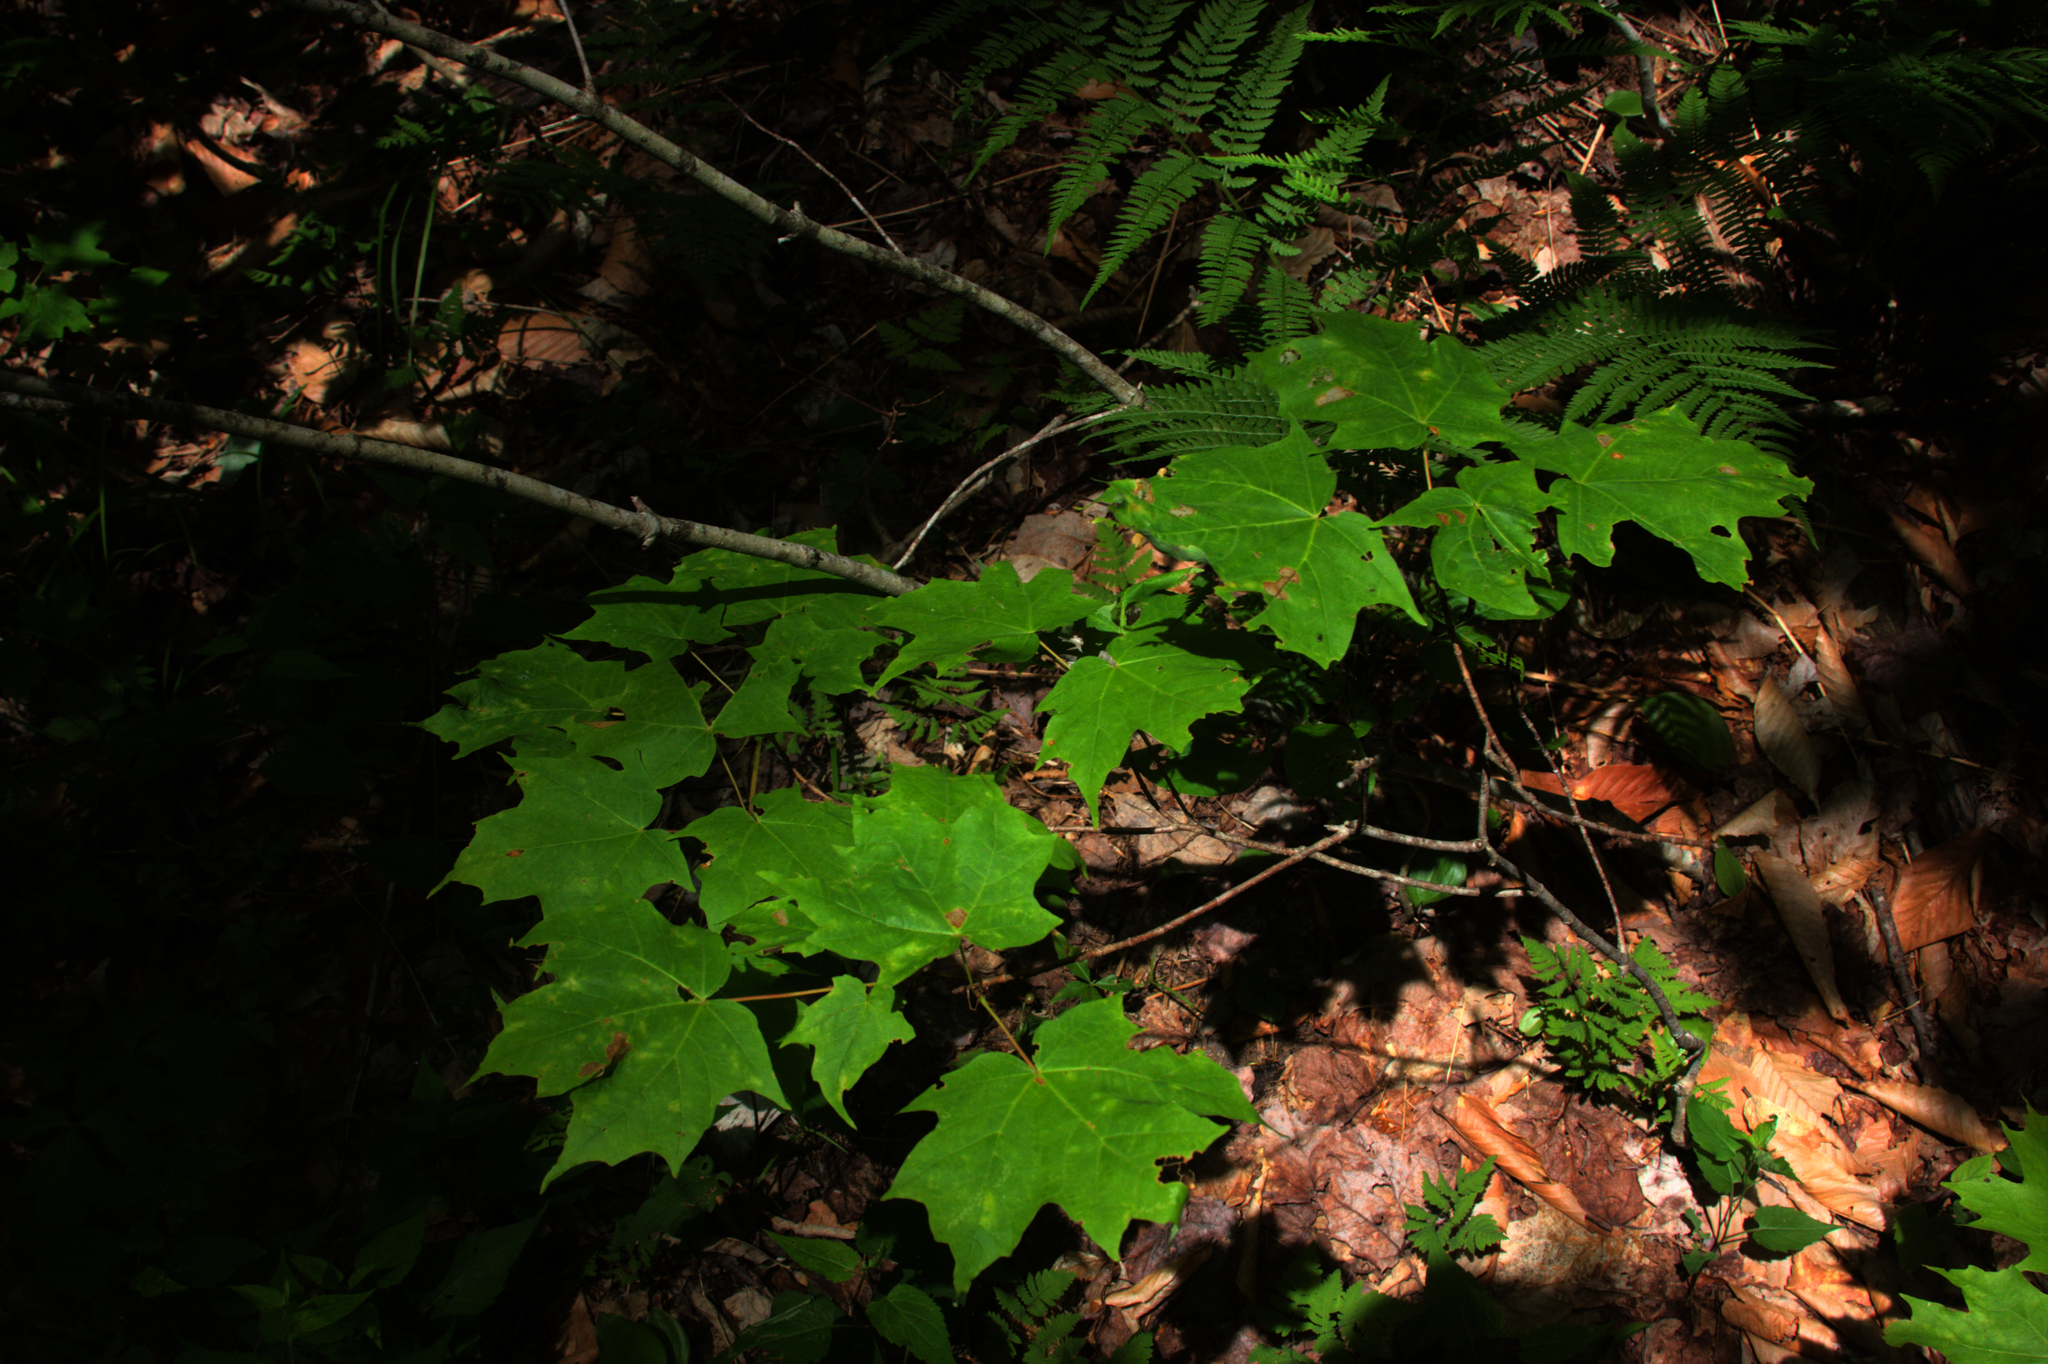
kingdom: Plantae
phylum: Tracheophyta
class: Magnoliopsida
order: Sapindales
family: Sapindaceae
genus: Acer
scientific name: Acer saccharum
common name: Sugar maple
